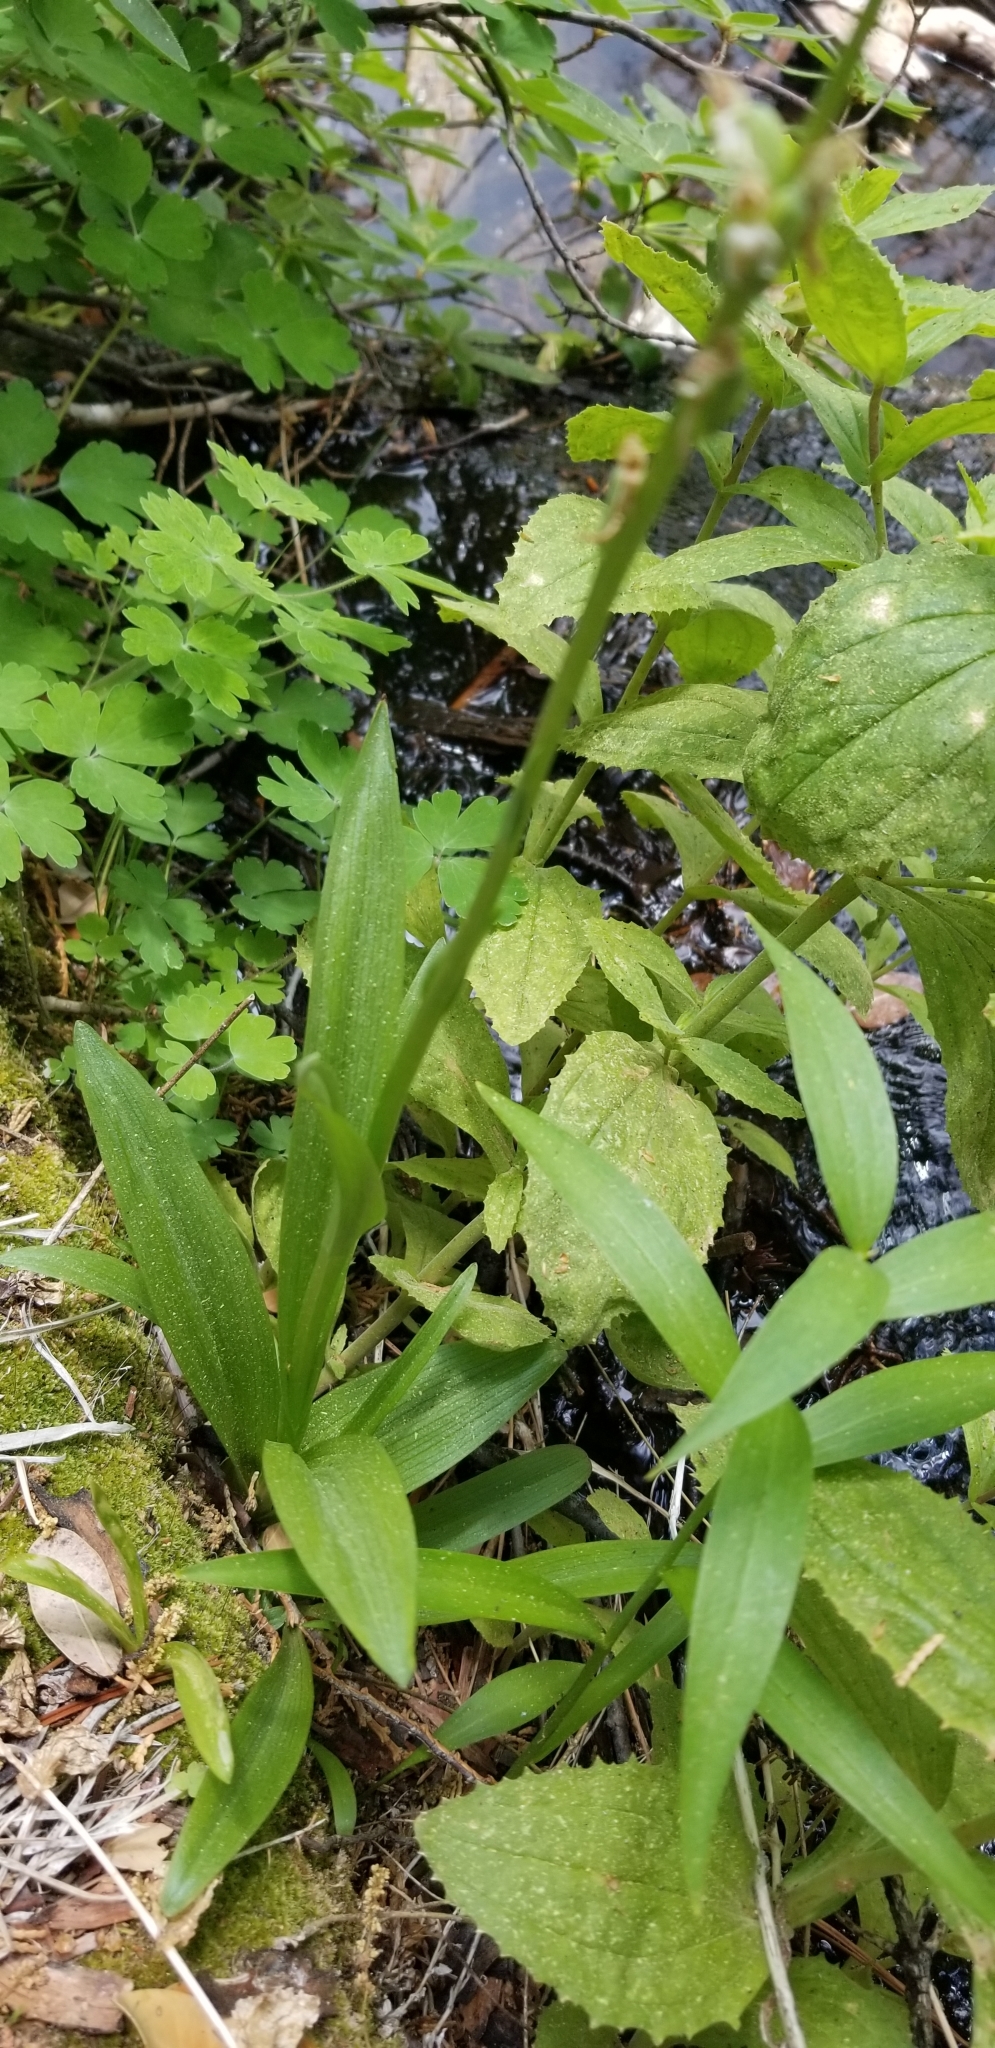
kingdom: Plantae
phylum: Tracheophyta
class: Liliopsida
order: Asparagales
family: Orchidaceae
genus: Platanthera
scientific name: Platanthera dilatata
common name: Bog candles
